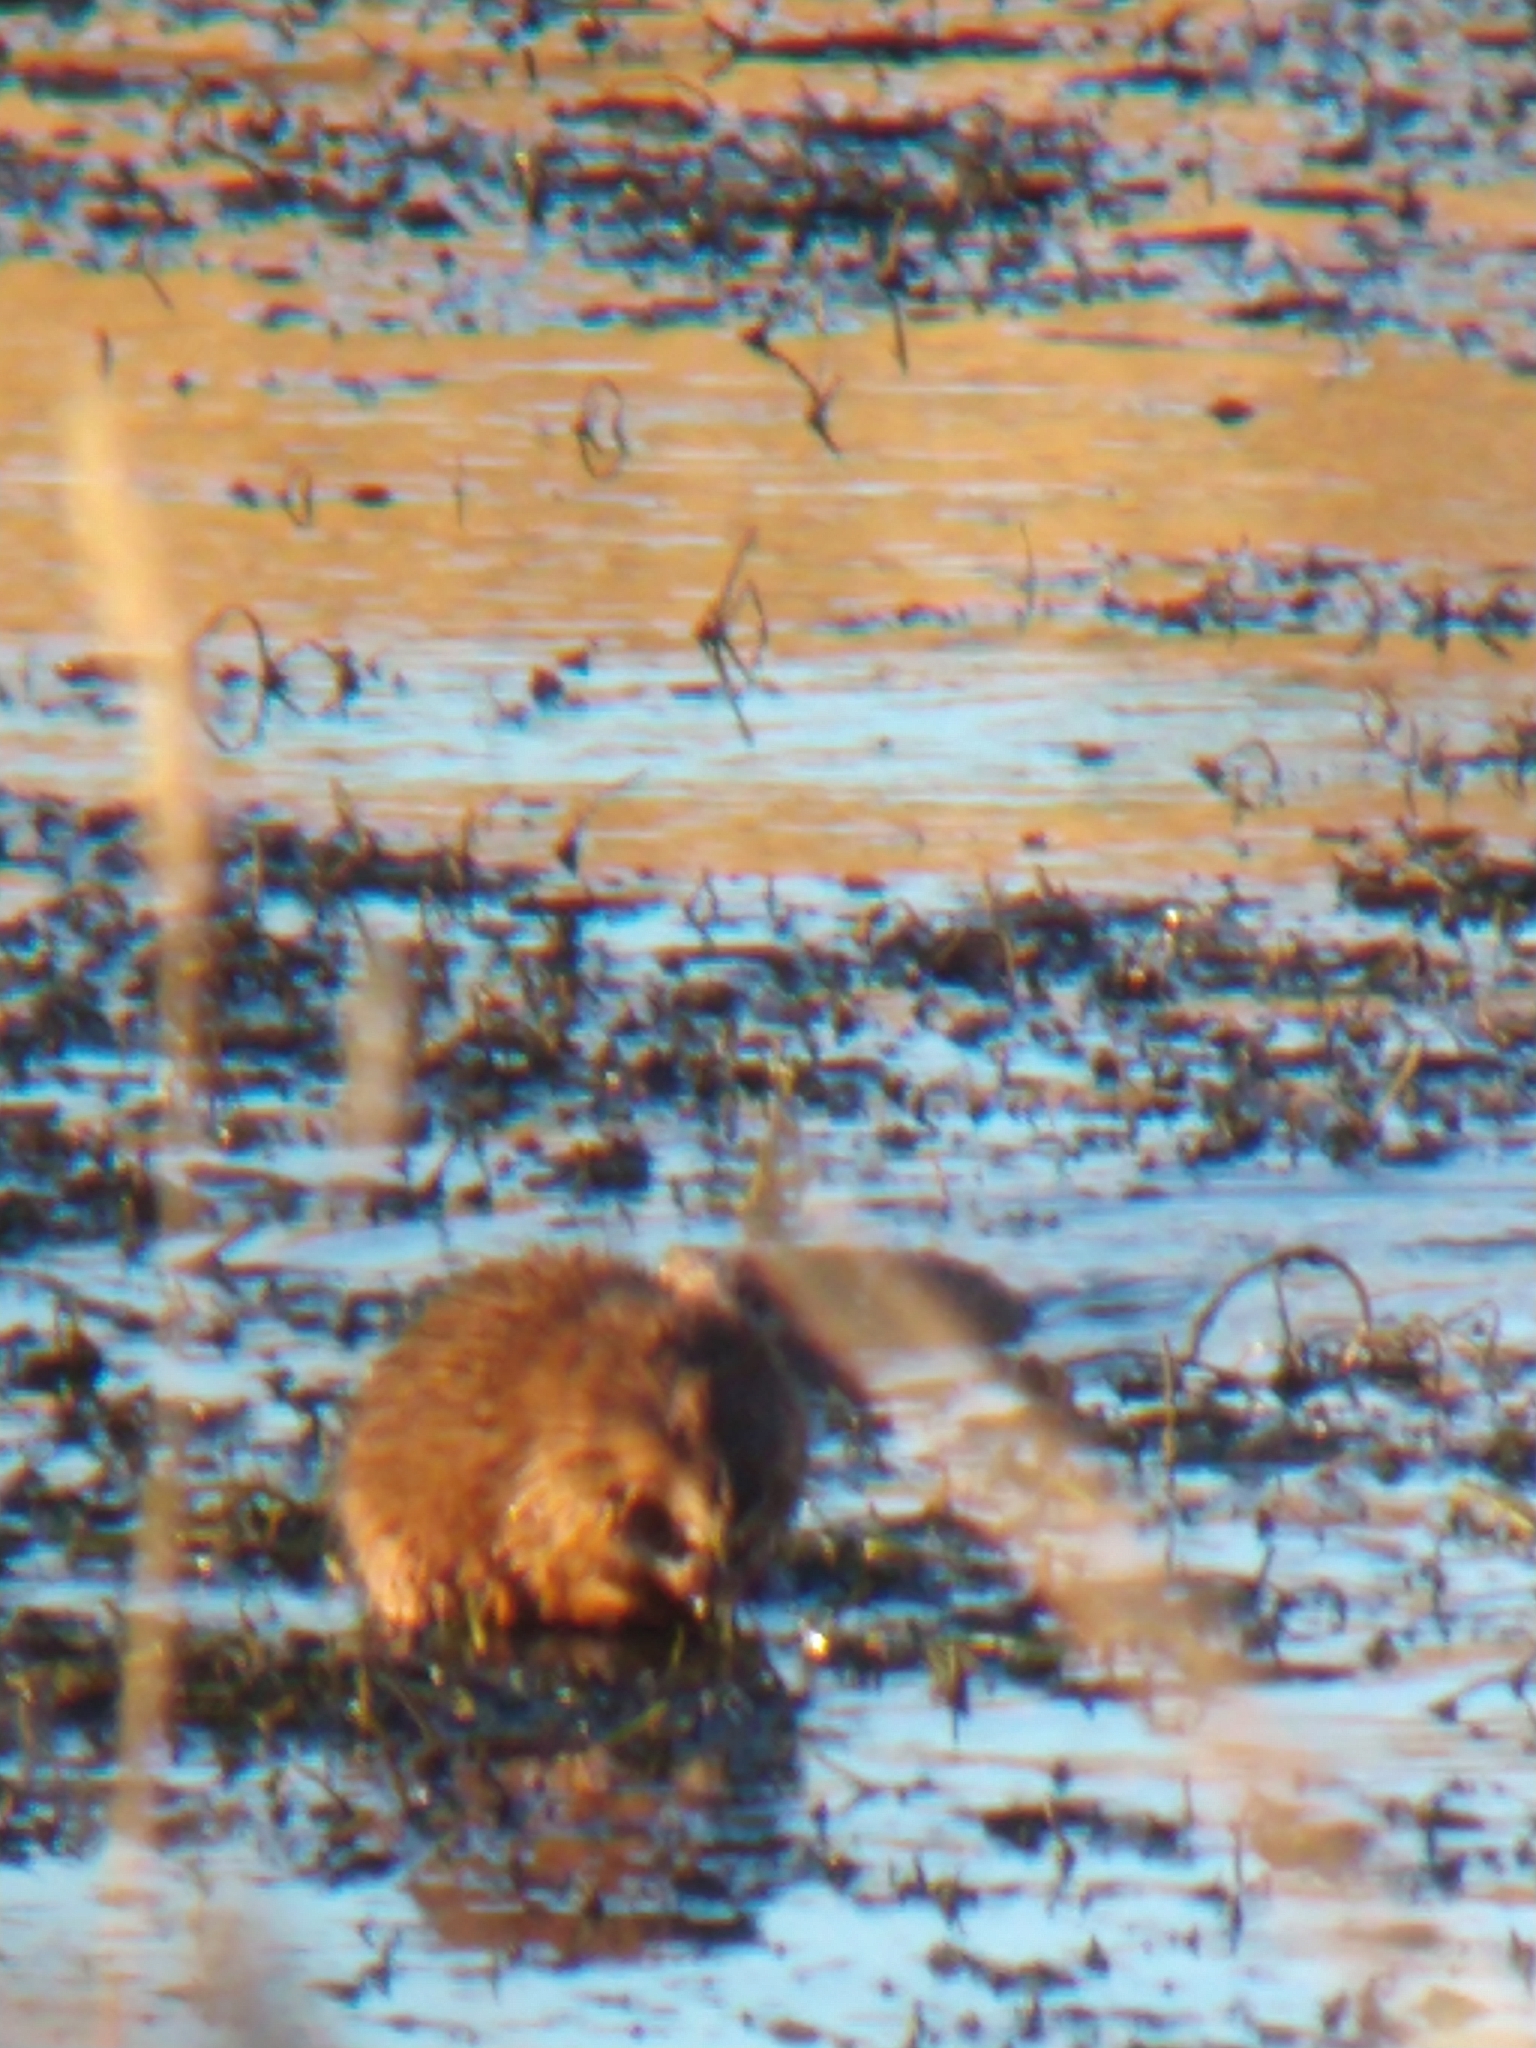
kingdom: Animalia
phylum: Chordata
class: Mammalia
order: Rodentia
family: Cricetidae
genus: Ondatra
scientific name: Ondatra zibethicus
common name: Muskrat
